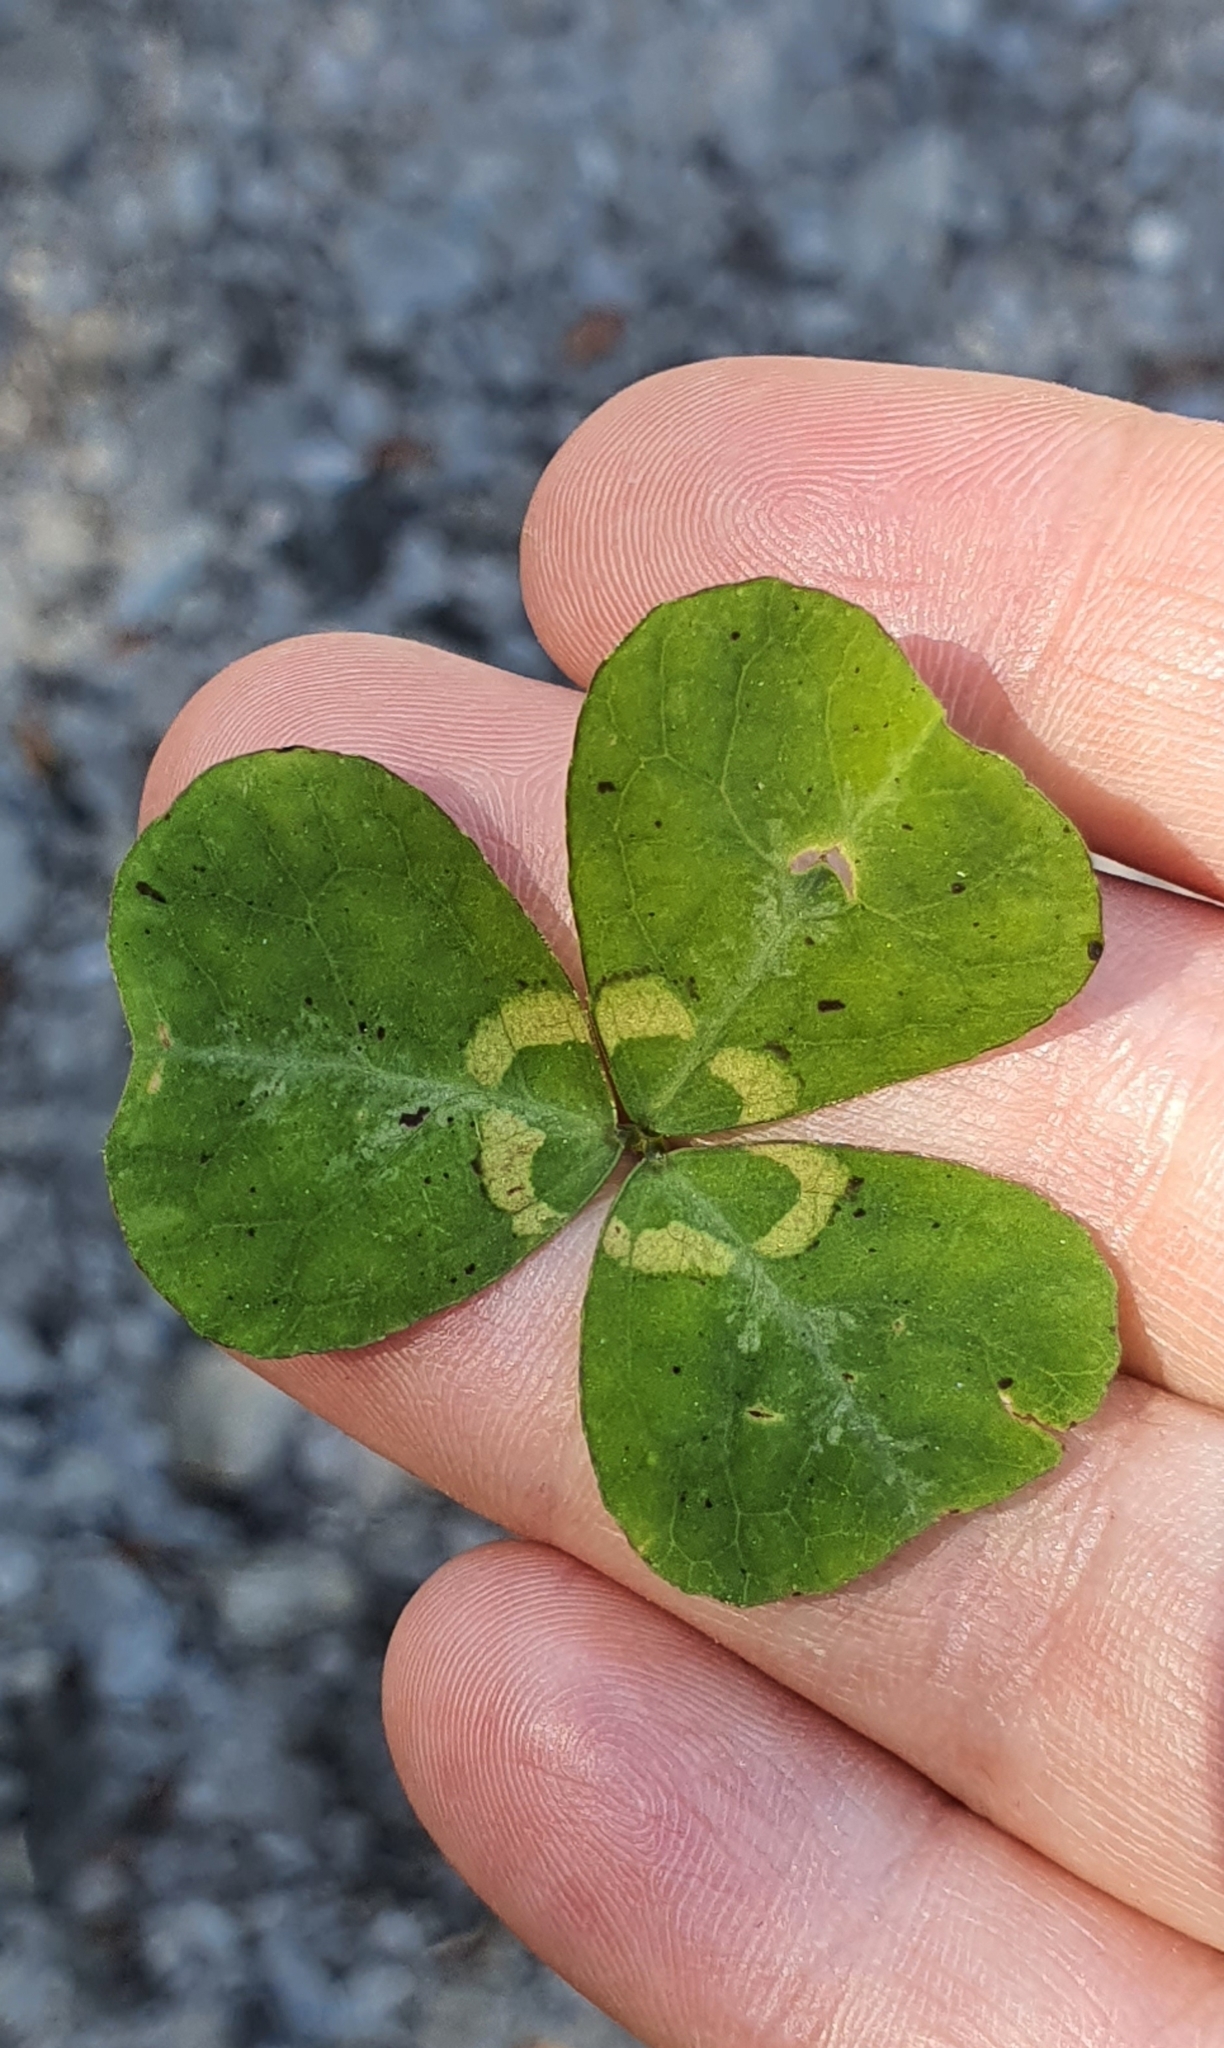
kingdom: Plantae
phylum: Tracheophyta
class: Magnoliopsida
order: Fabales
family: Fabaceae
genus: Parochetus
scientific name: Parochetus communis
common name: Blue oxalis
